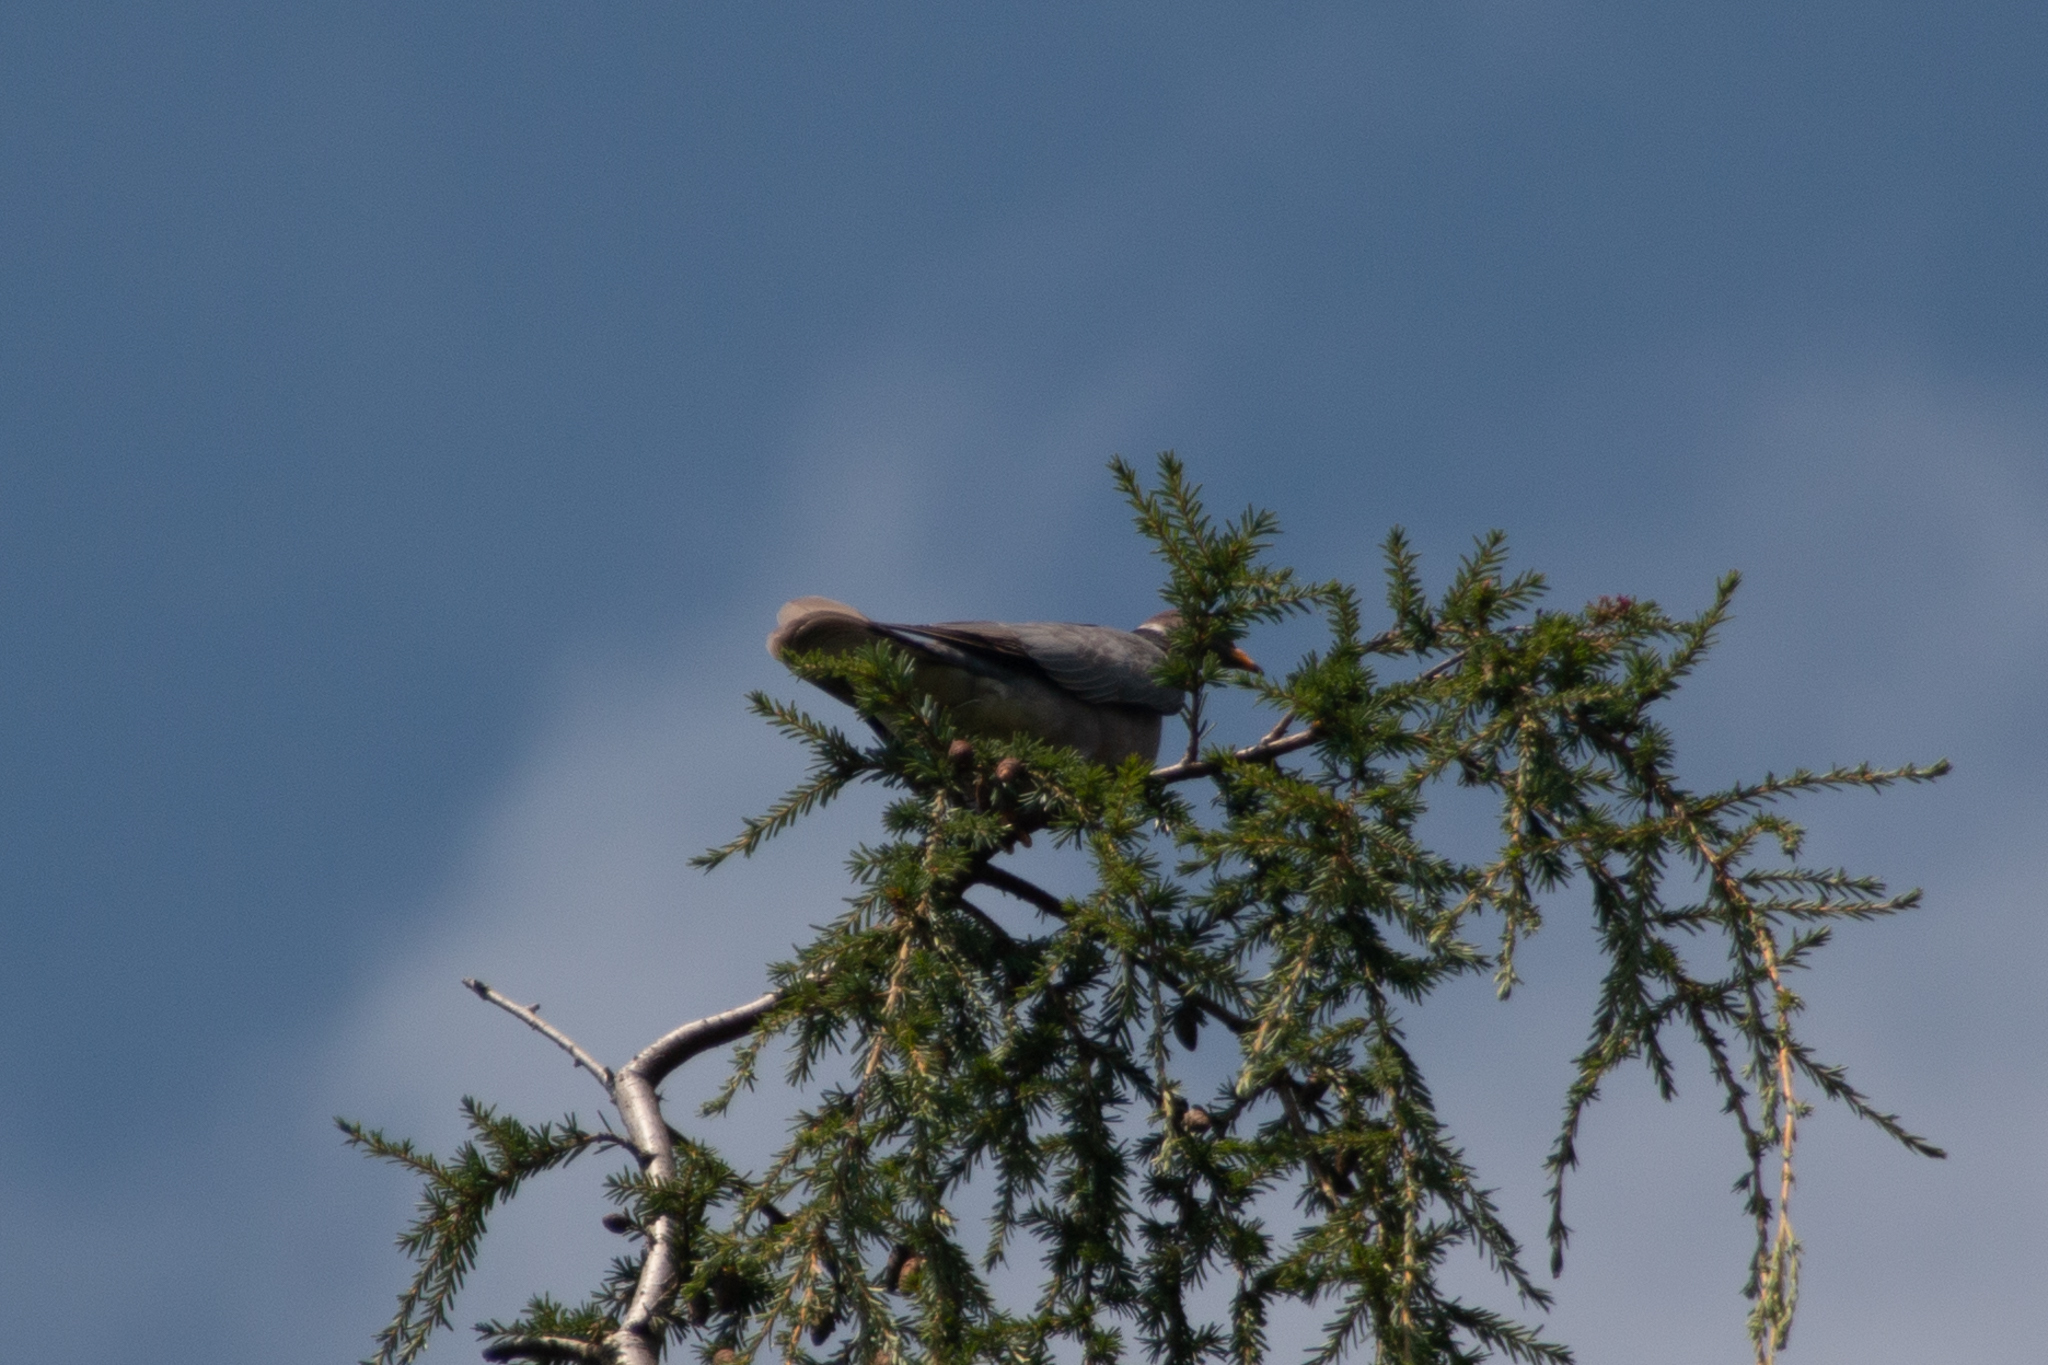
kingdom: Animalia
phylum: Chordata
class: Aves
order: Columbiformes
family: Columbidae
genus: Patagioenas
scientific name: Patagioenas fasciata
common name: Band-tailed pigeon
